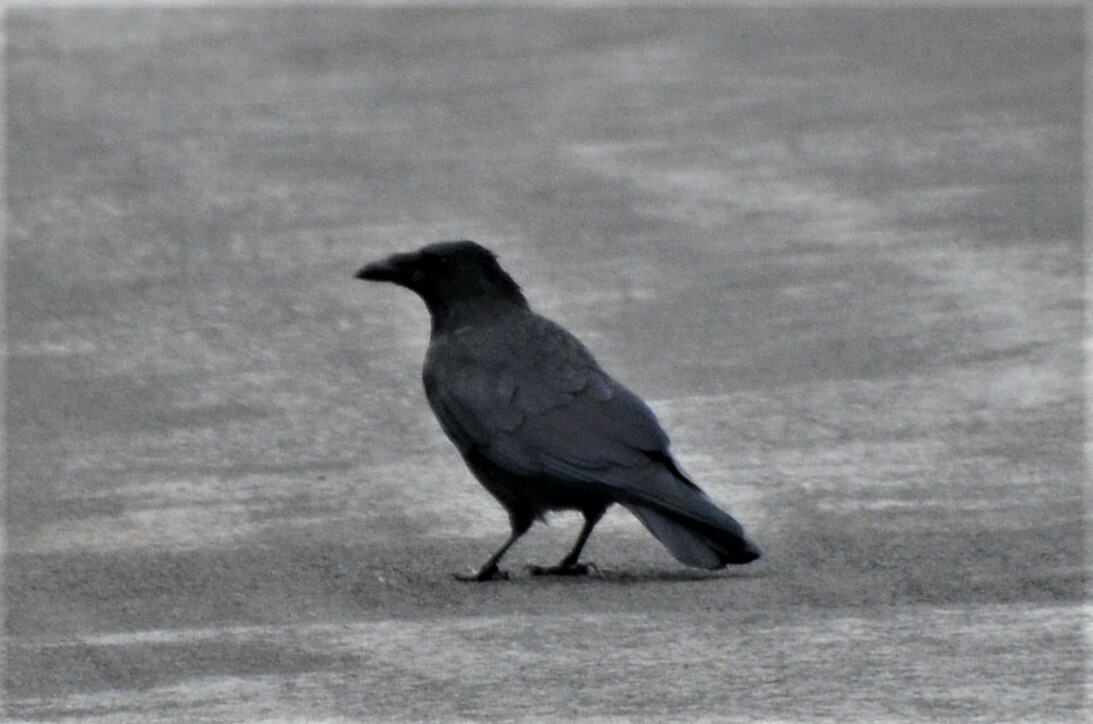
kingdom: Animalia
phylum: Chordata
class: Aves
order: Passeriformes
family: Corvidae
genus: Corvus
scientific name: Corvus corone
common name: Carrion crow
